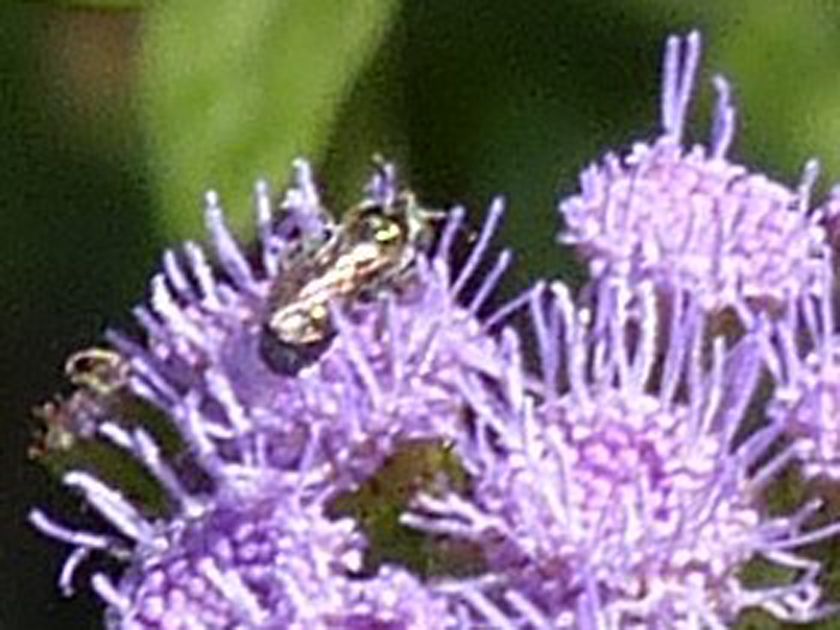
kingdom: Animalia
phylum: Arthropoda
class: Insecta
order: Hymenoptera
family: Apidae
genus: Zadontomerus
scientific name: Zadontomerus
